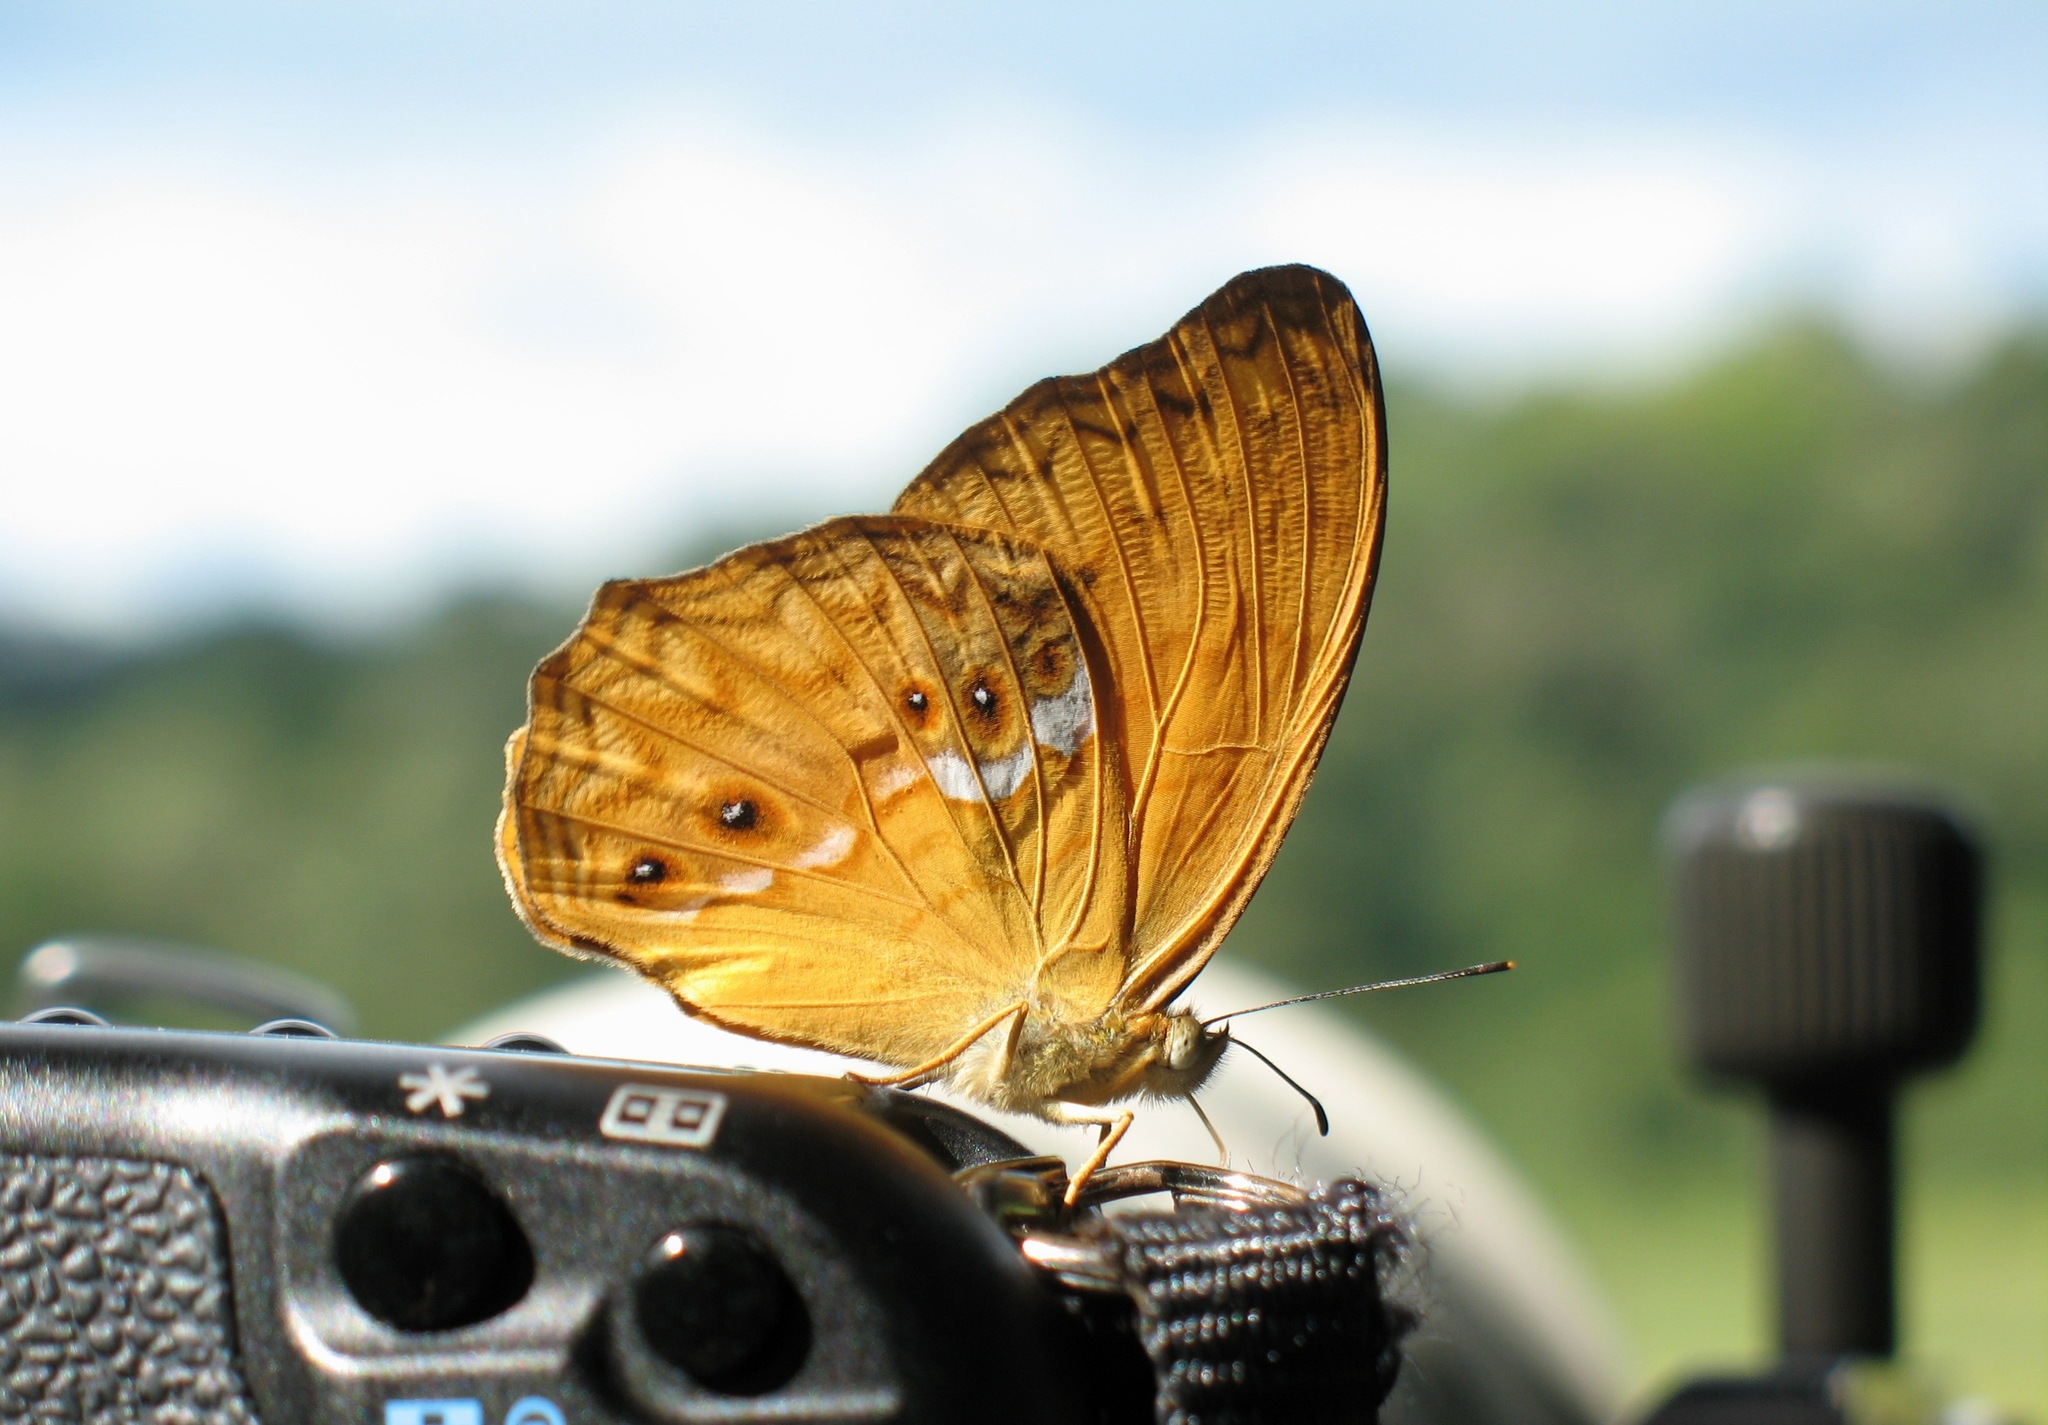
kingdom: Animalia
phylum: Arthropoda
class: Insecta
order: Lepidoptera
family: Nymphalidae
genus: Lachnoptera
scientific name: Lachnoptera iole
